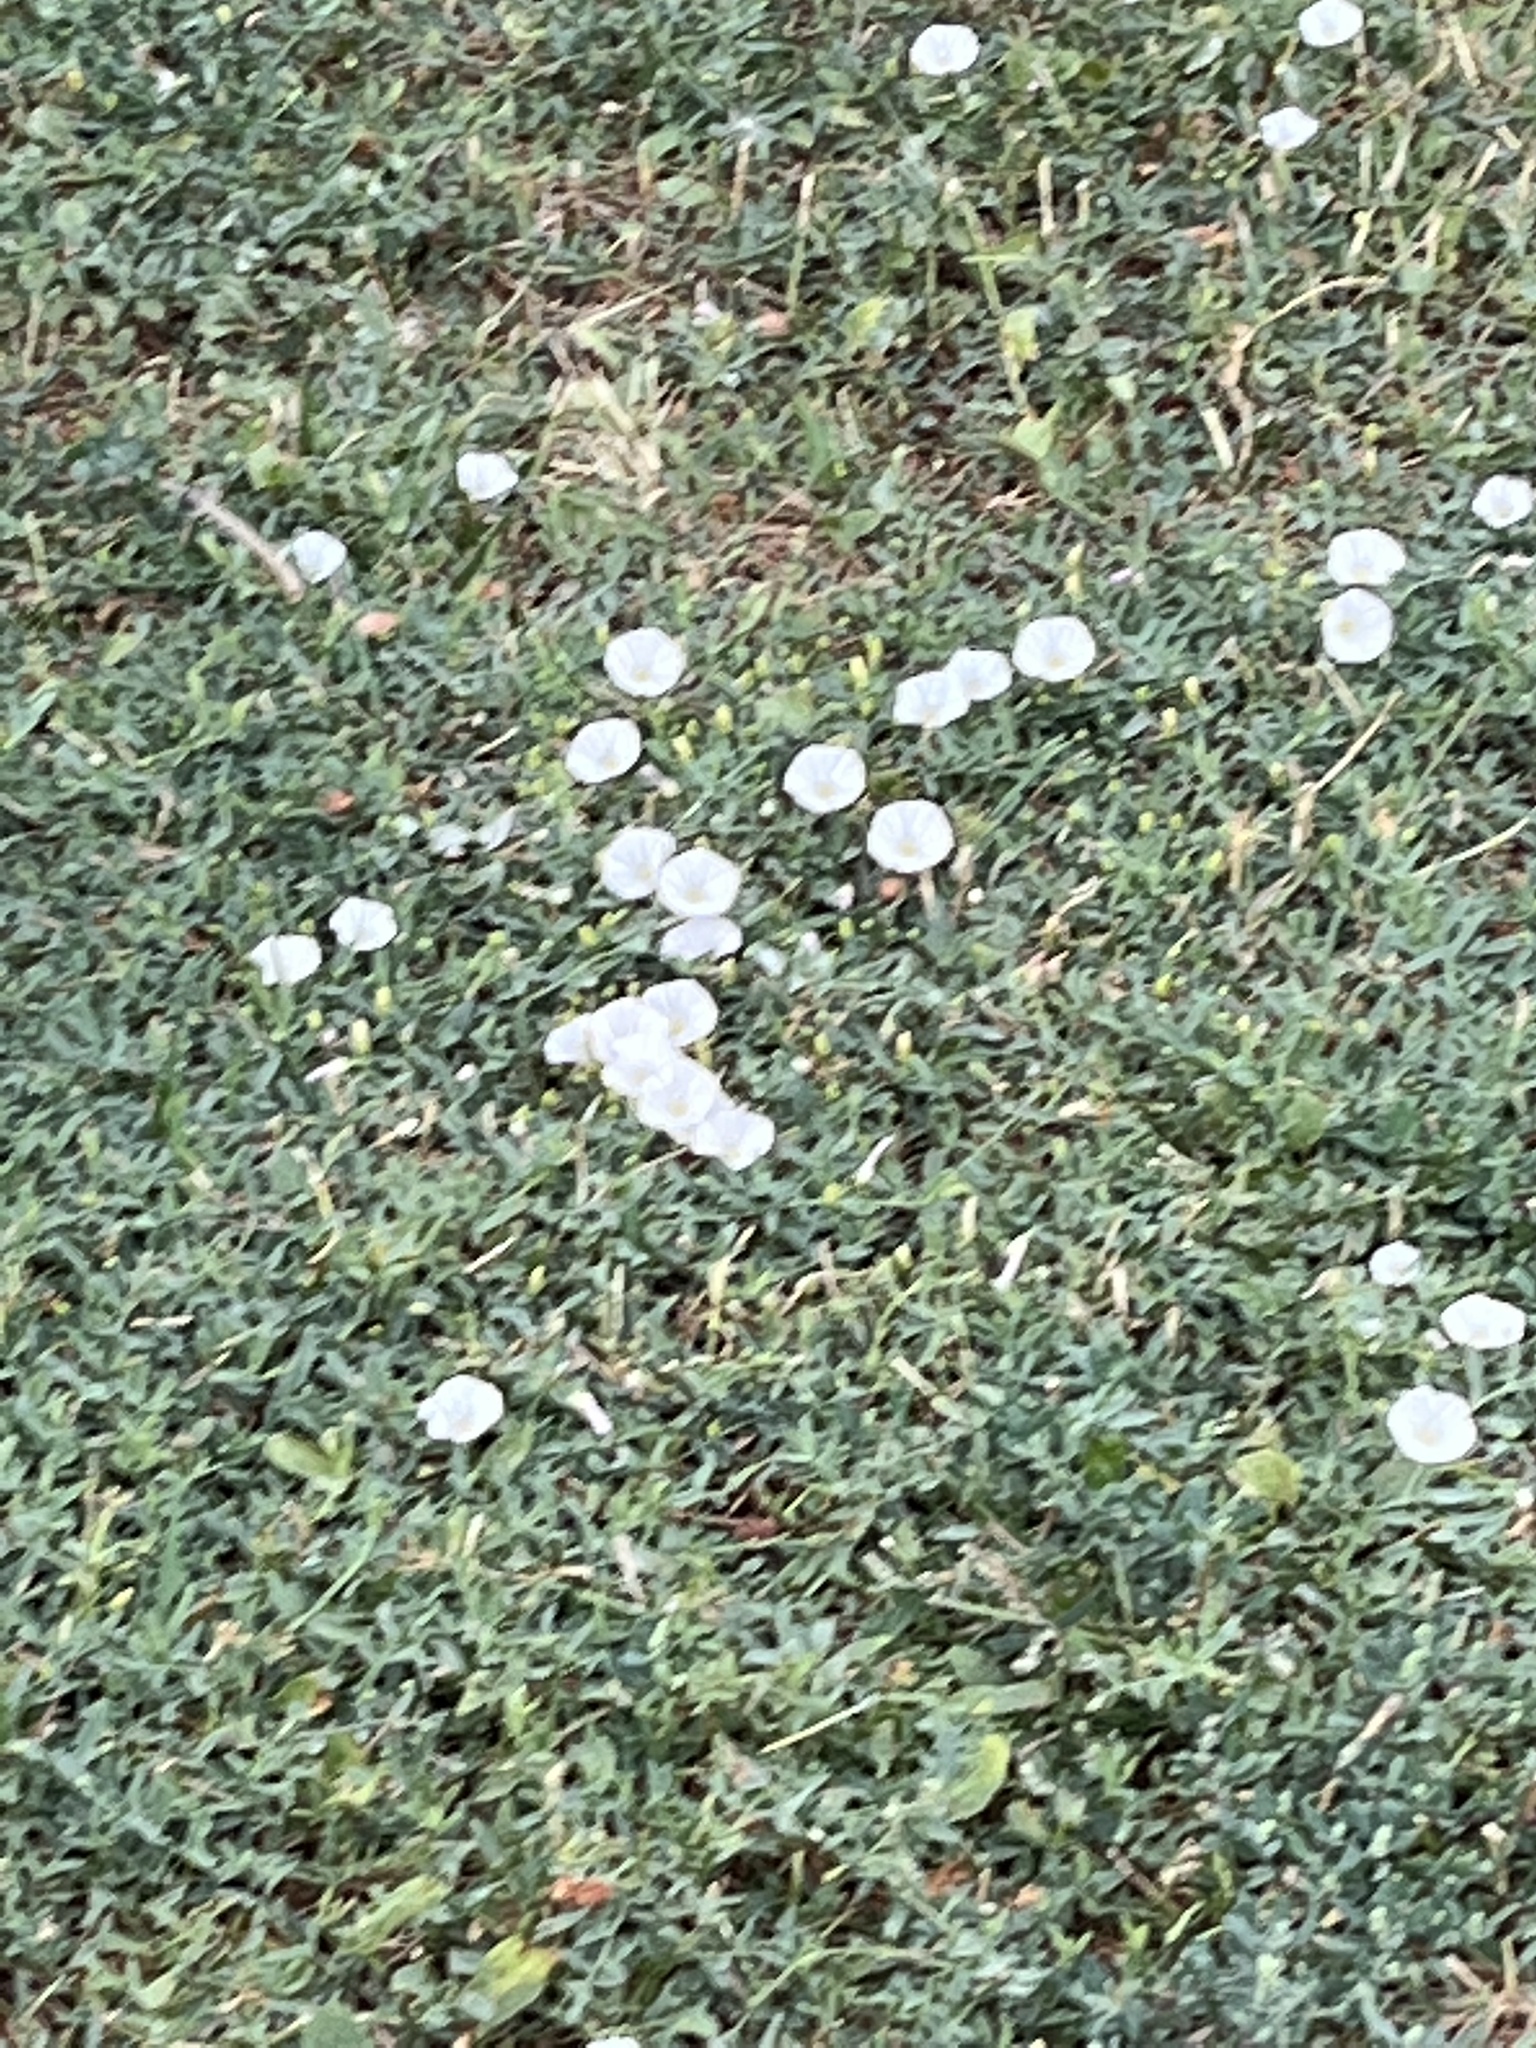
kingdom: Plantae
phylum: Tracheophyta
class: Magnoliopsida
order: Solanales
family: Convolvulaceae
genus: Convolvulus
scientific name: Convolvulus arvensis
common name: Field bindweed
